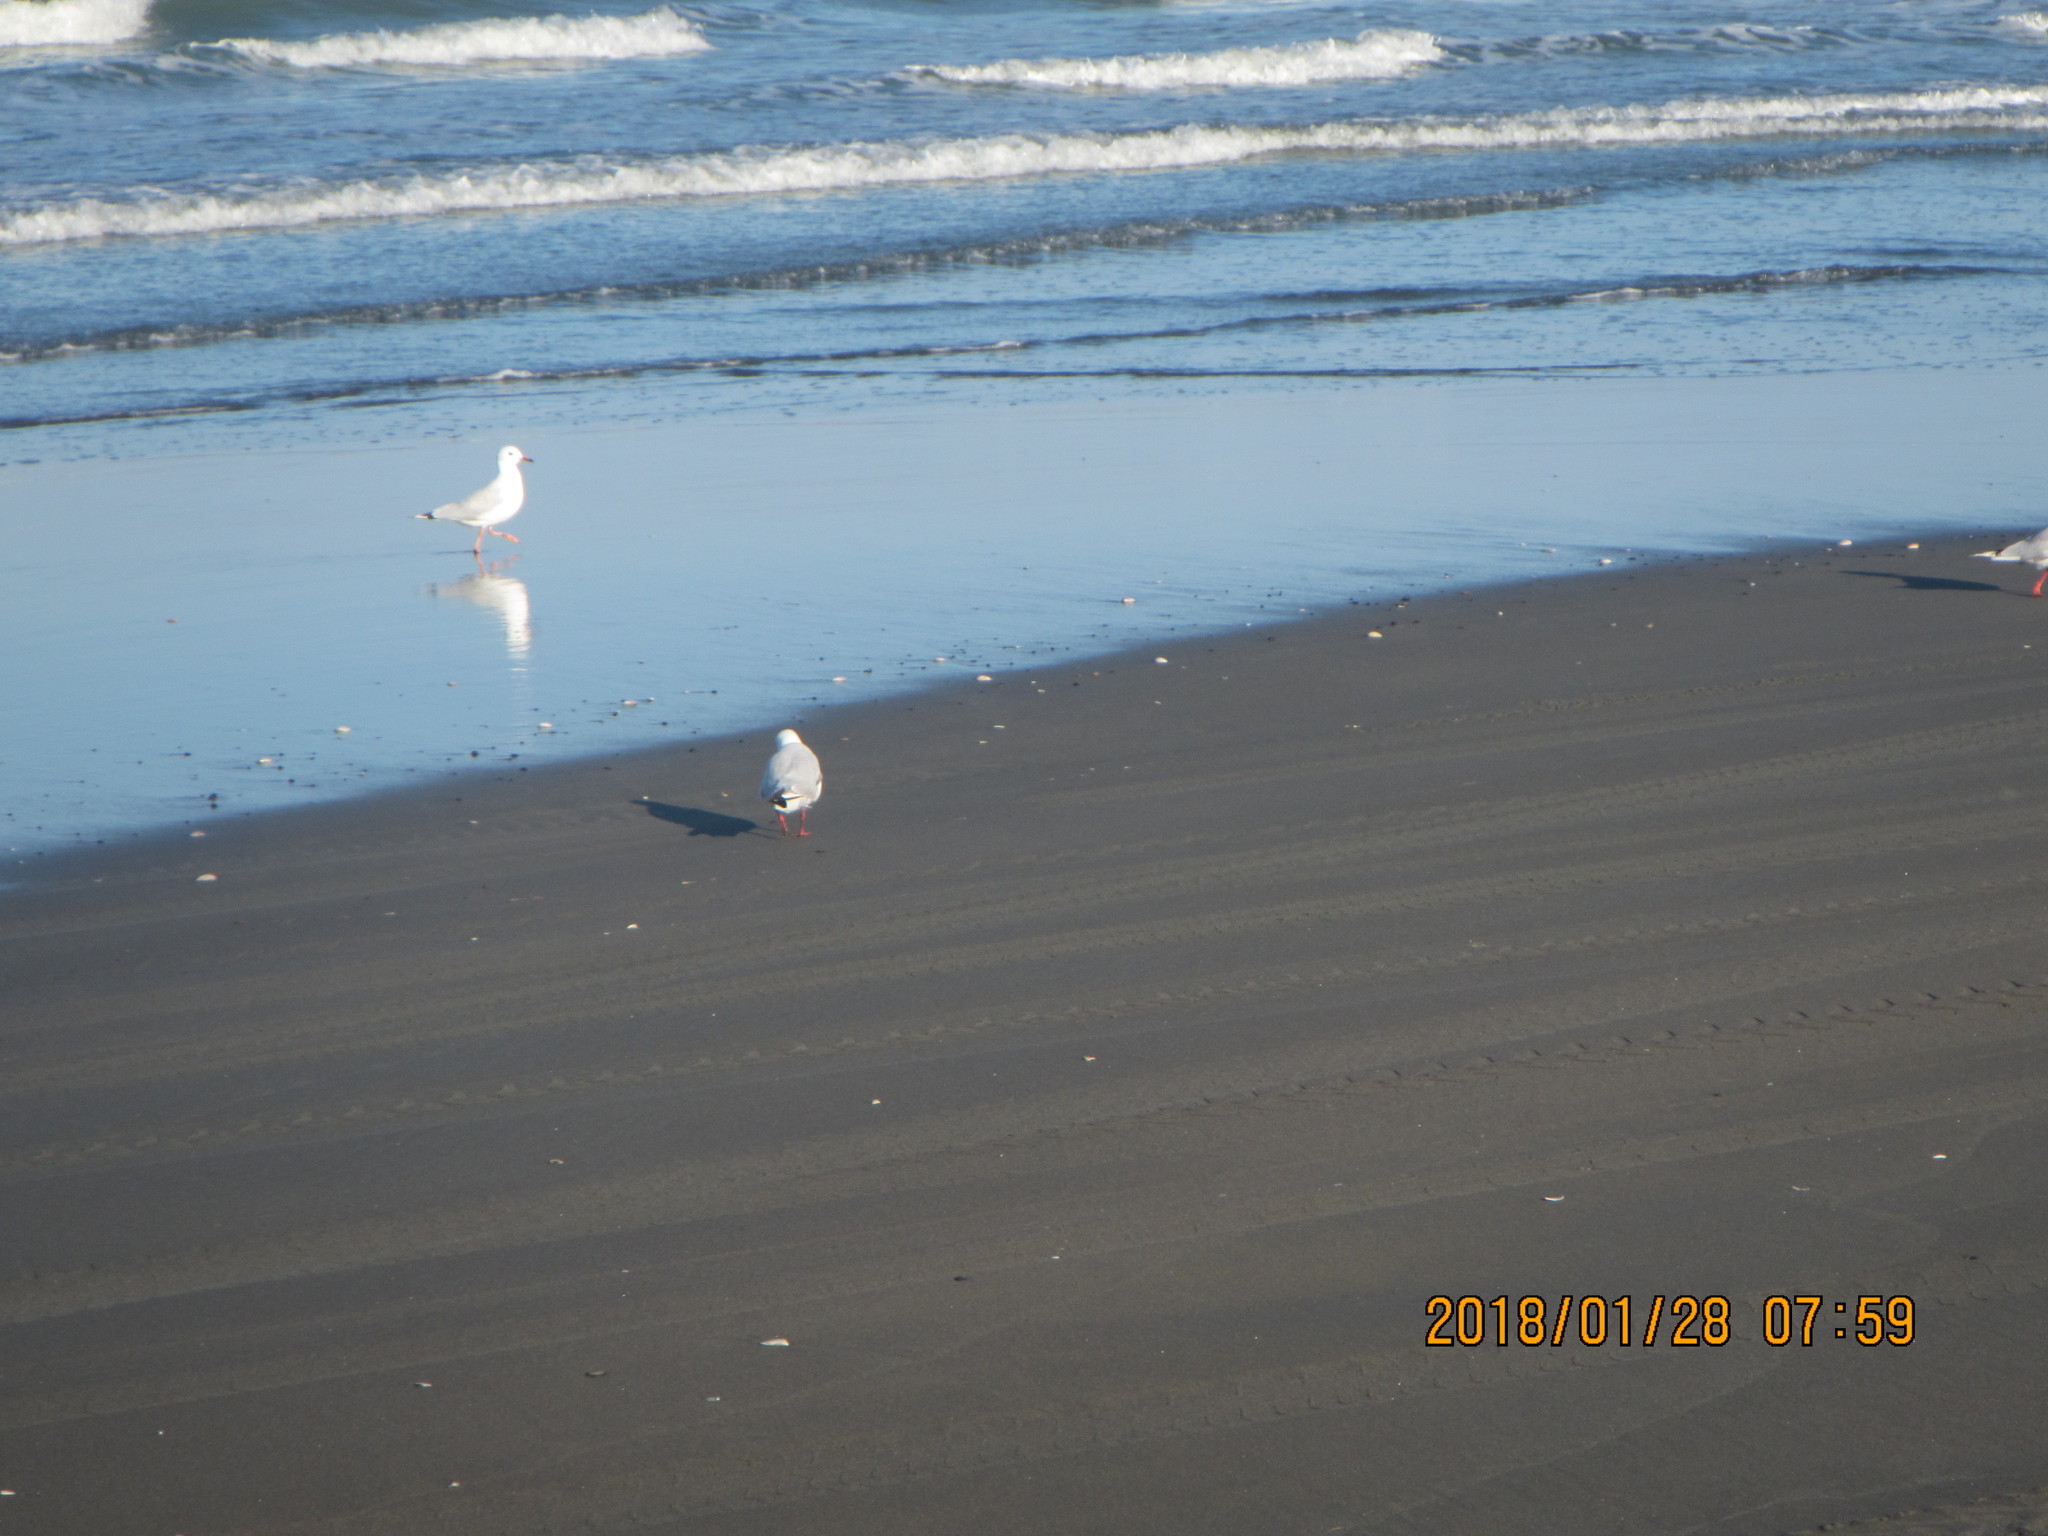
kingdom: Animalia
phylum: Chordata
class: Aves
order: Charadriiformes
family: Laridae
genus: Chroicocephalus
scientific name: Chroicocephalus novaehollandiae
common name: Silver gull
